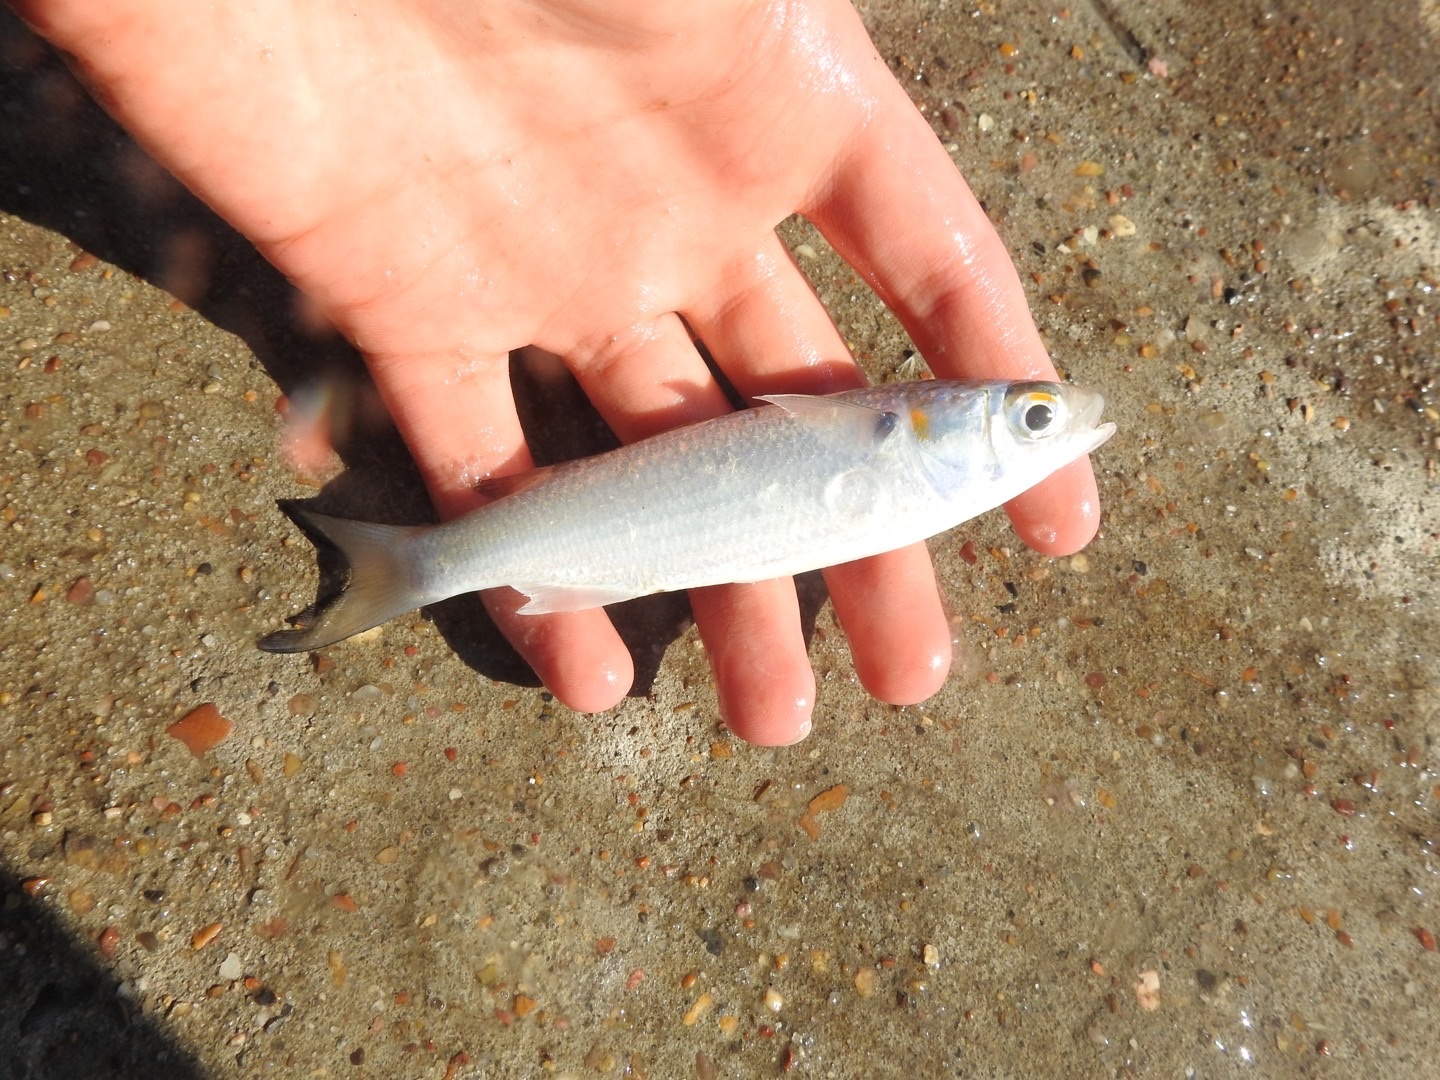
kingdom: Animalia
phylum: Chordata
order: Mugiliformes
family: Mugilidae
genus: Mugil
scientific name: Mugil curema
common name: White mullet
